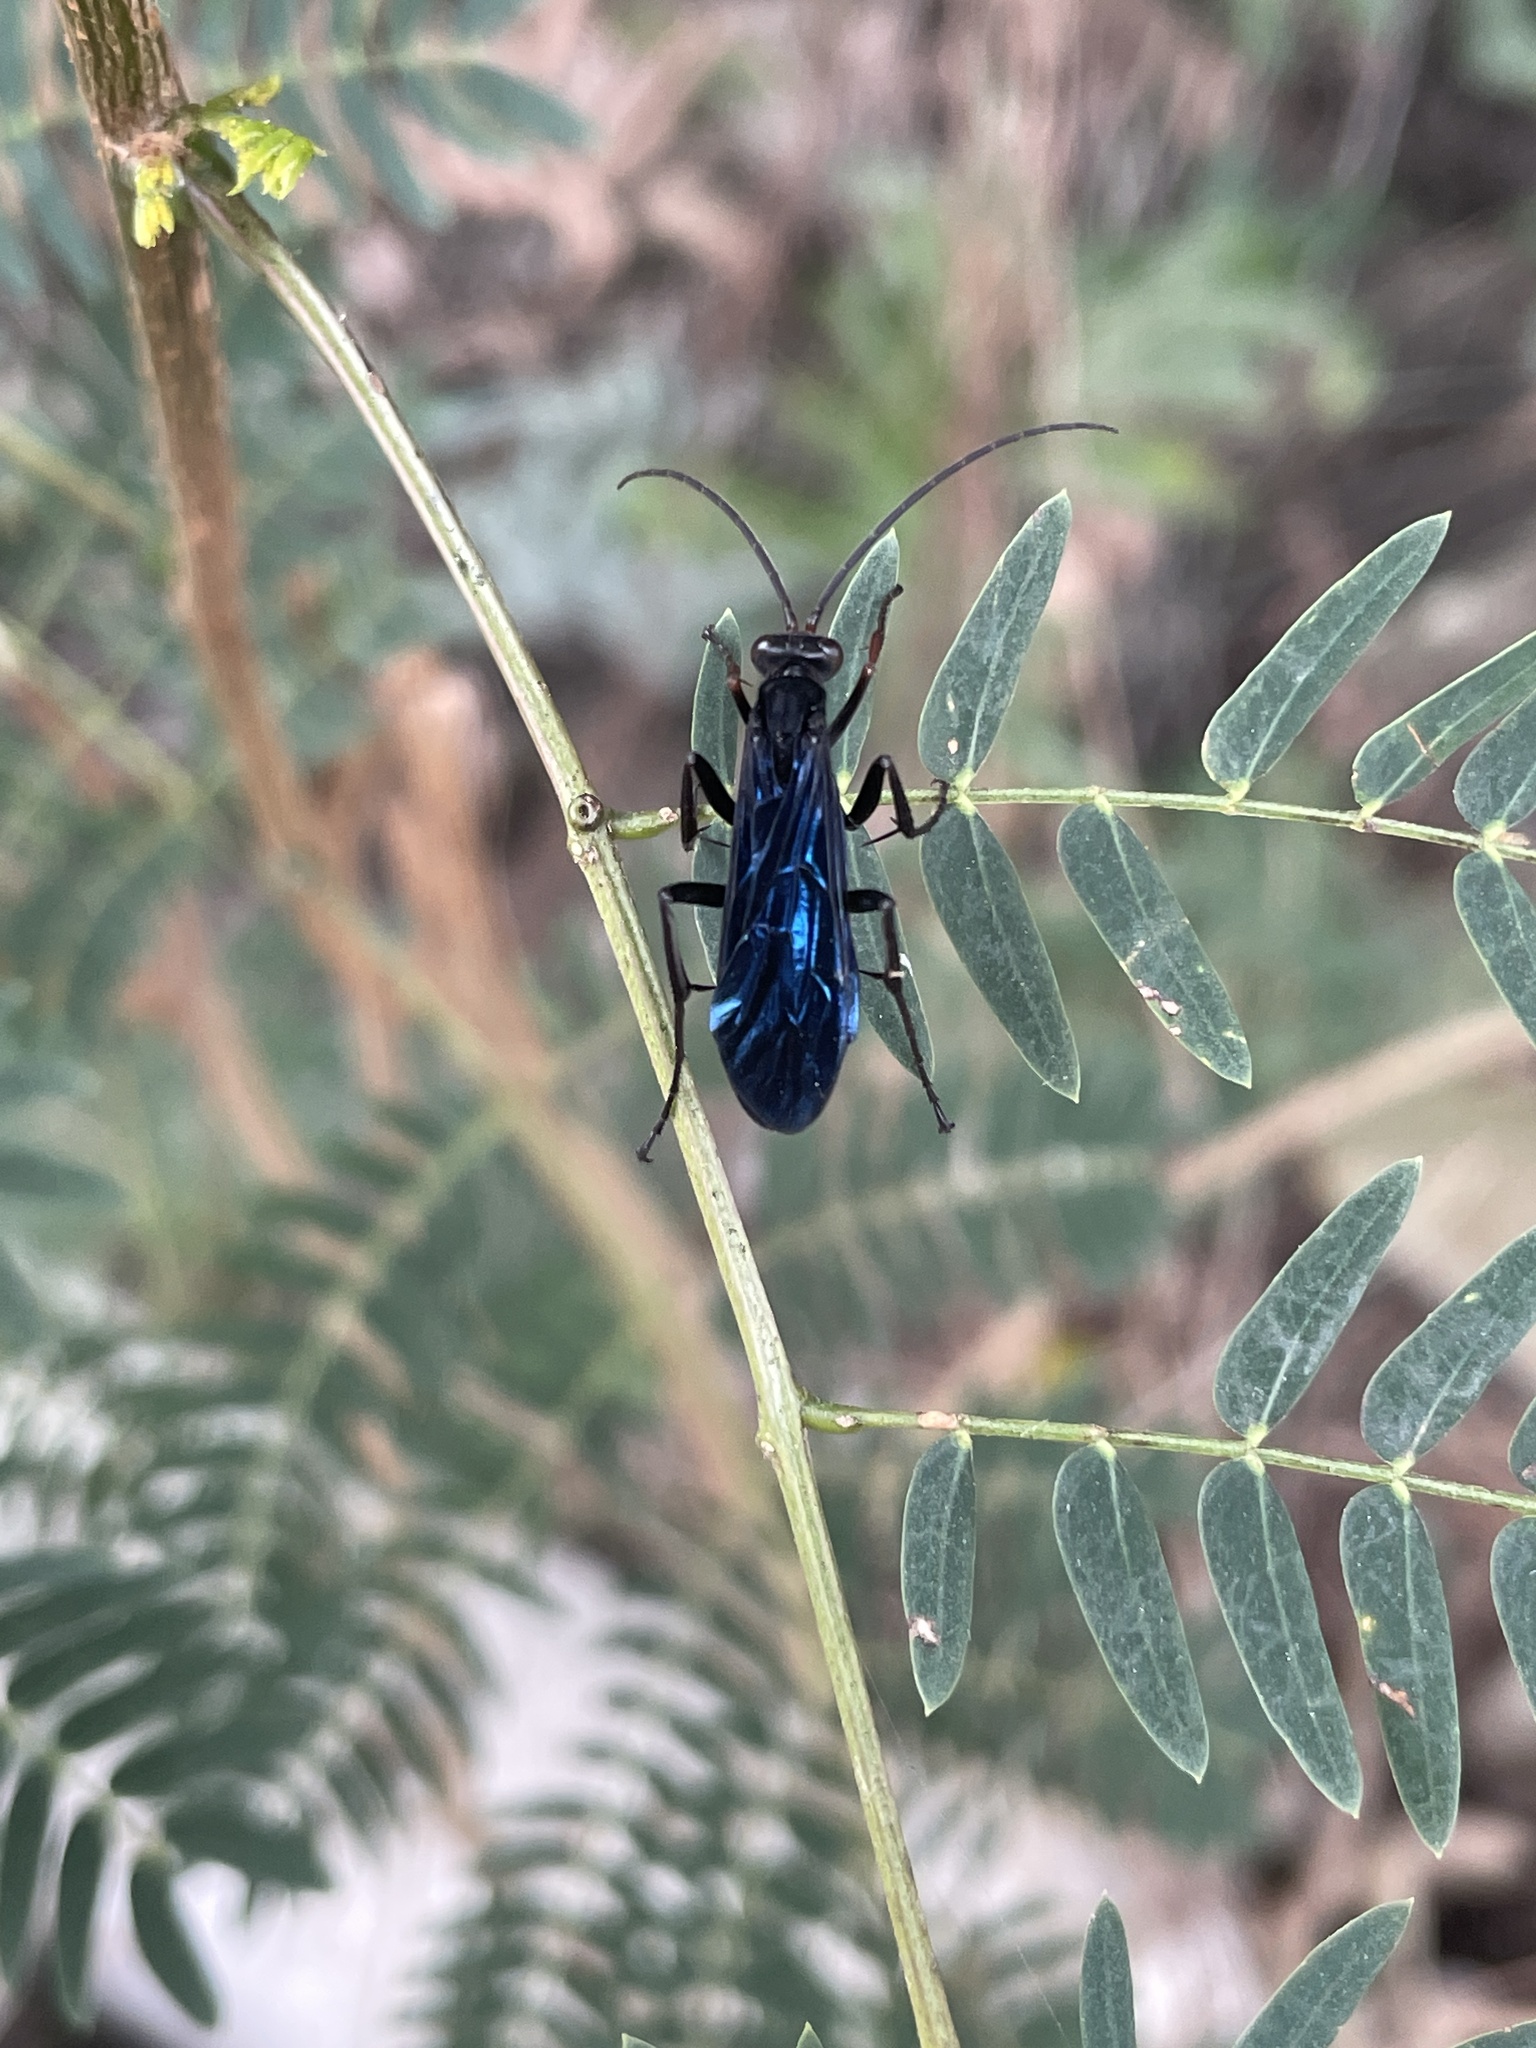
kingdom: Animalia
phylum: Arthropoda
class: Insecta
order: Hymenoptera
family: Pompilidae
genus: Cyphononyx
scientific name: Cyphononyx bipartitus
